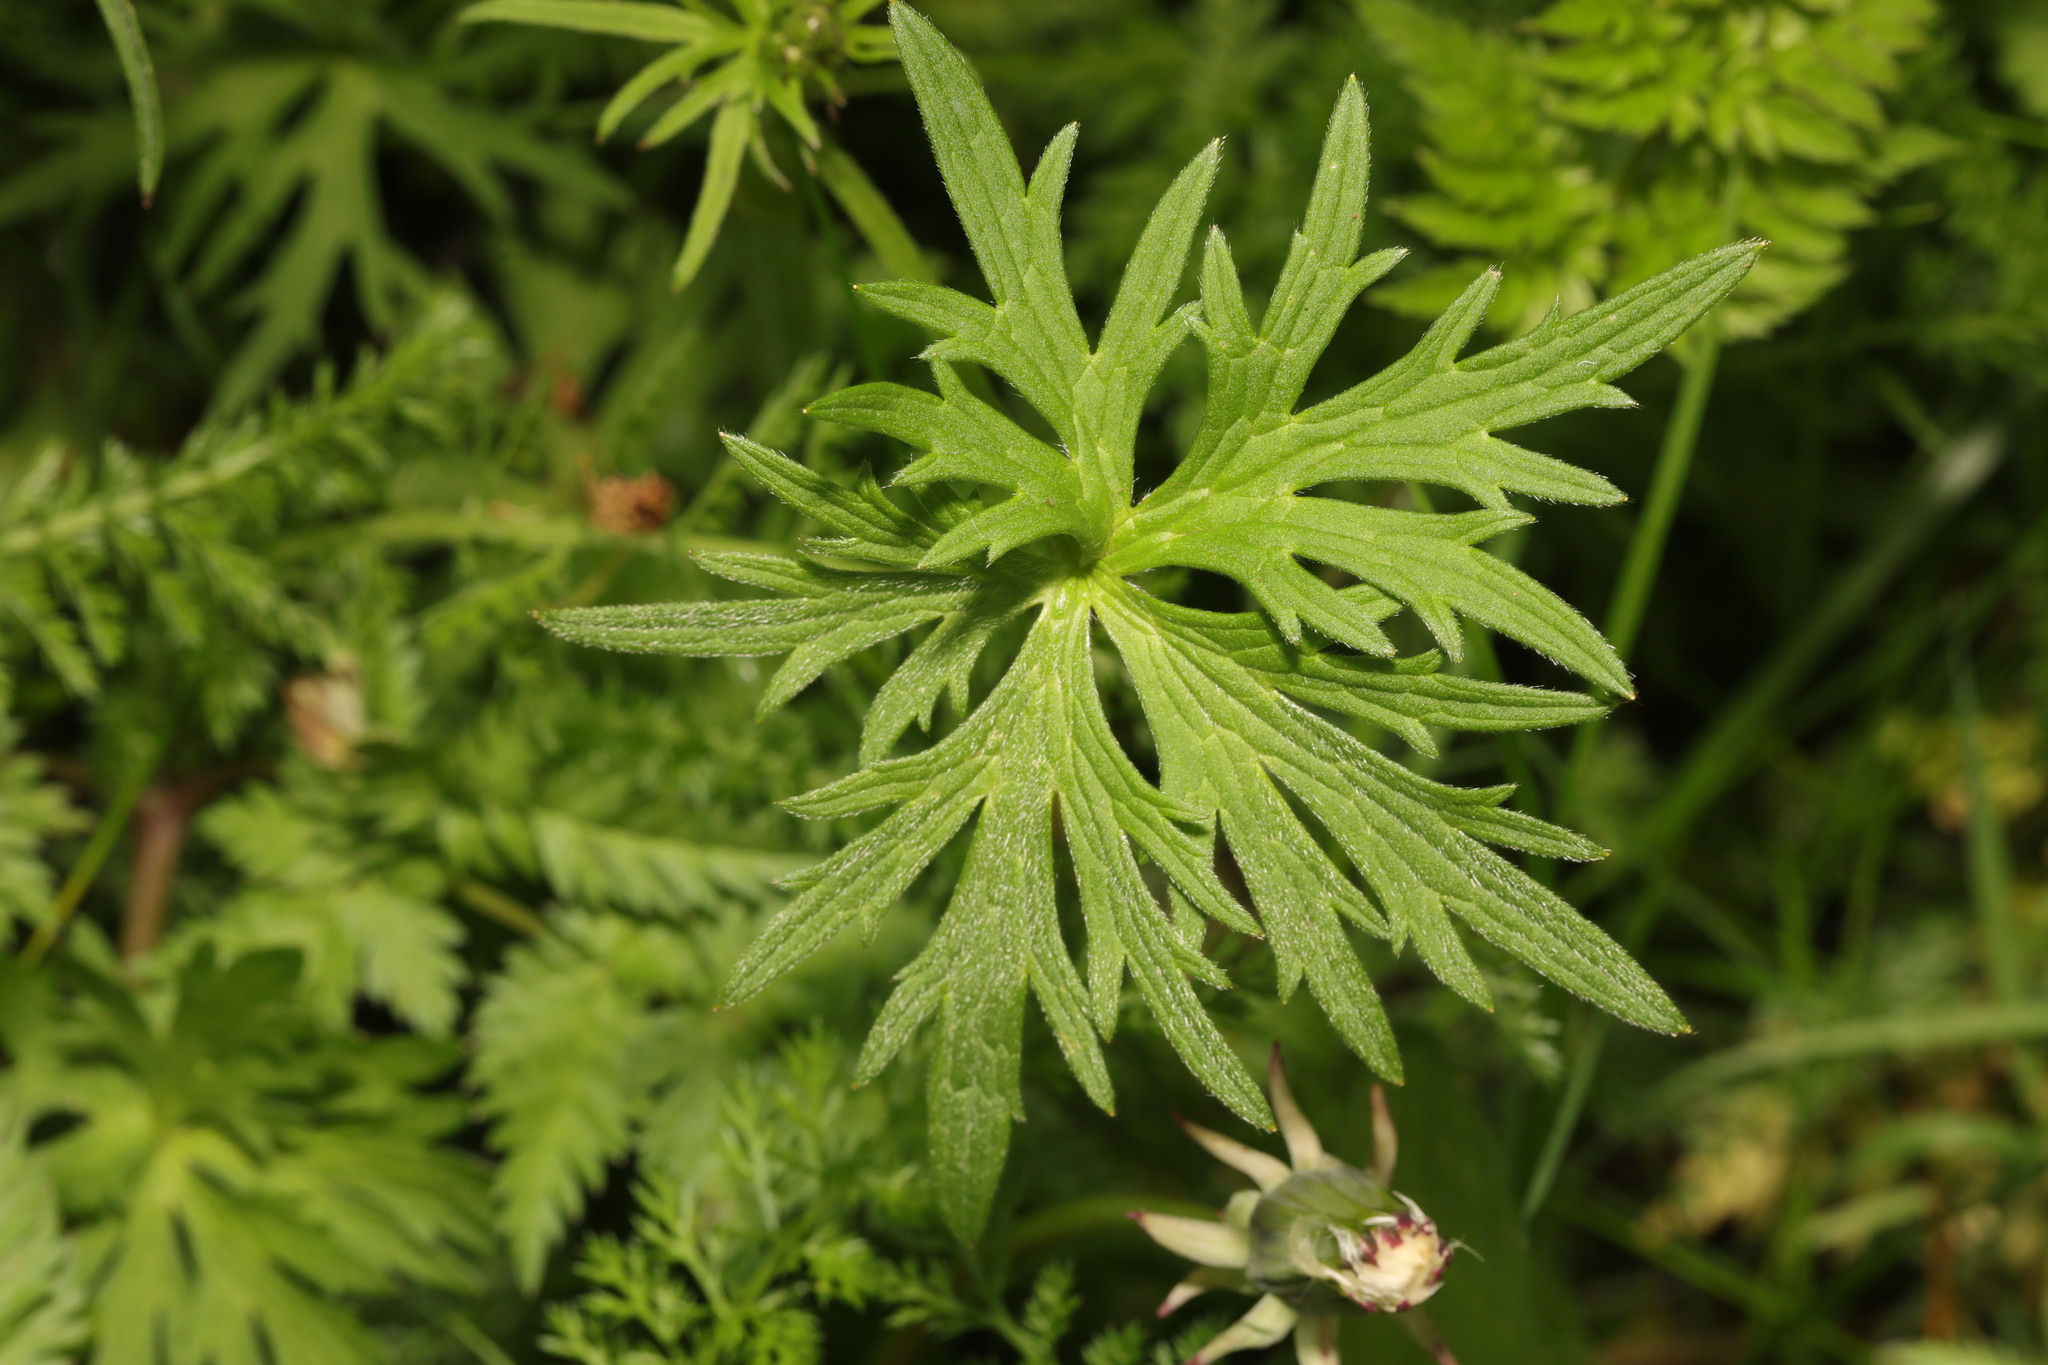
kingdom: Plantae
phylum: Tracheophyta
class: Magnoliopsida
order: Ranunculales
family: Ranunculaceae
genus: Ranunculus
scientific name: Ranunculus acris
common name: Meadow buttercup
